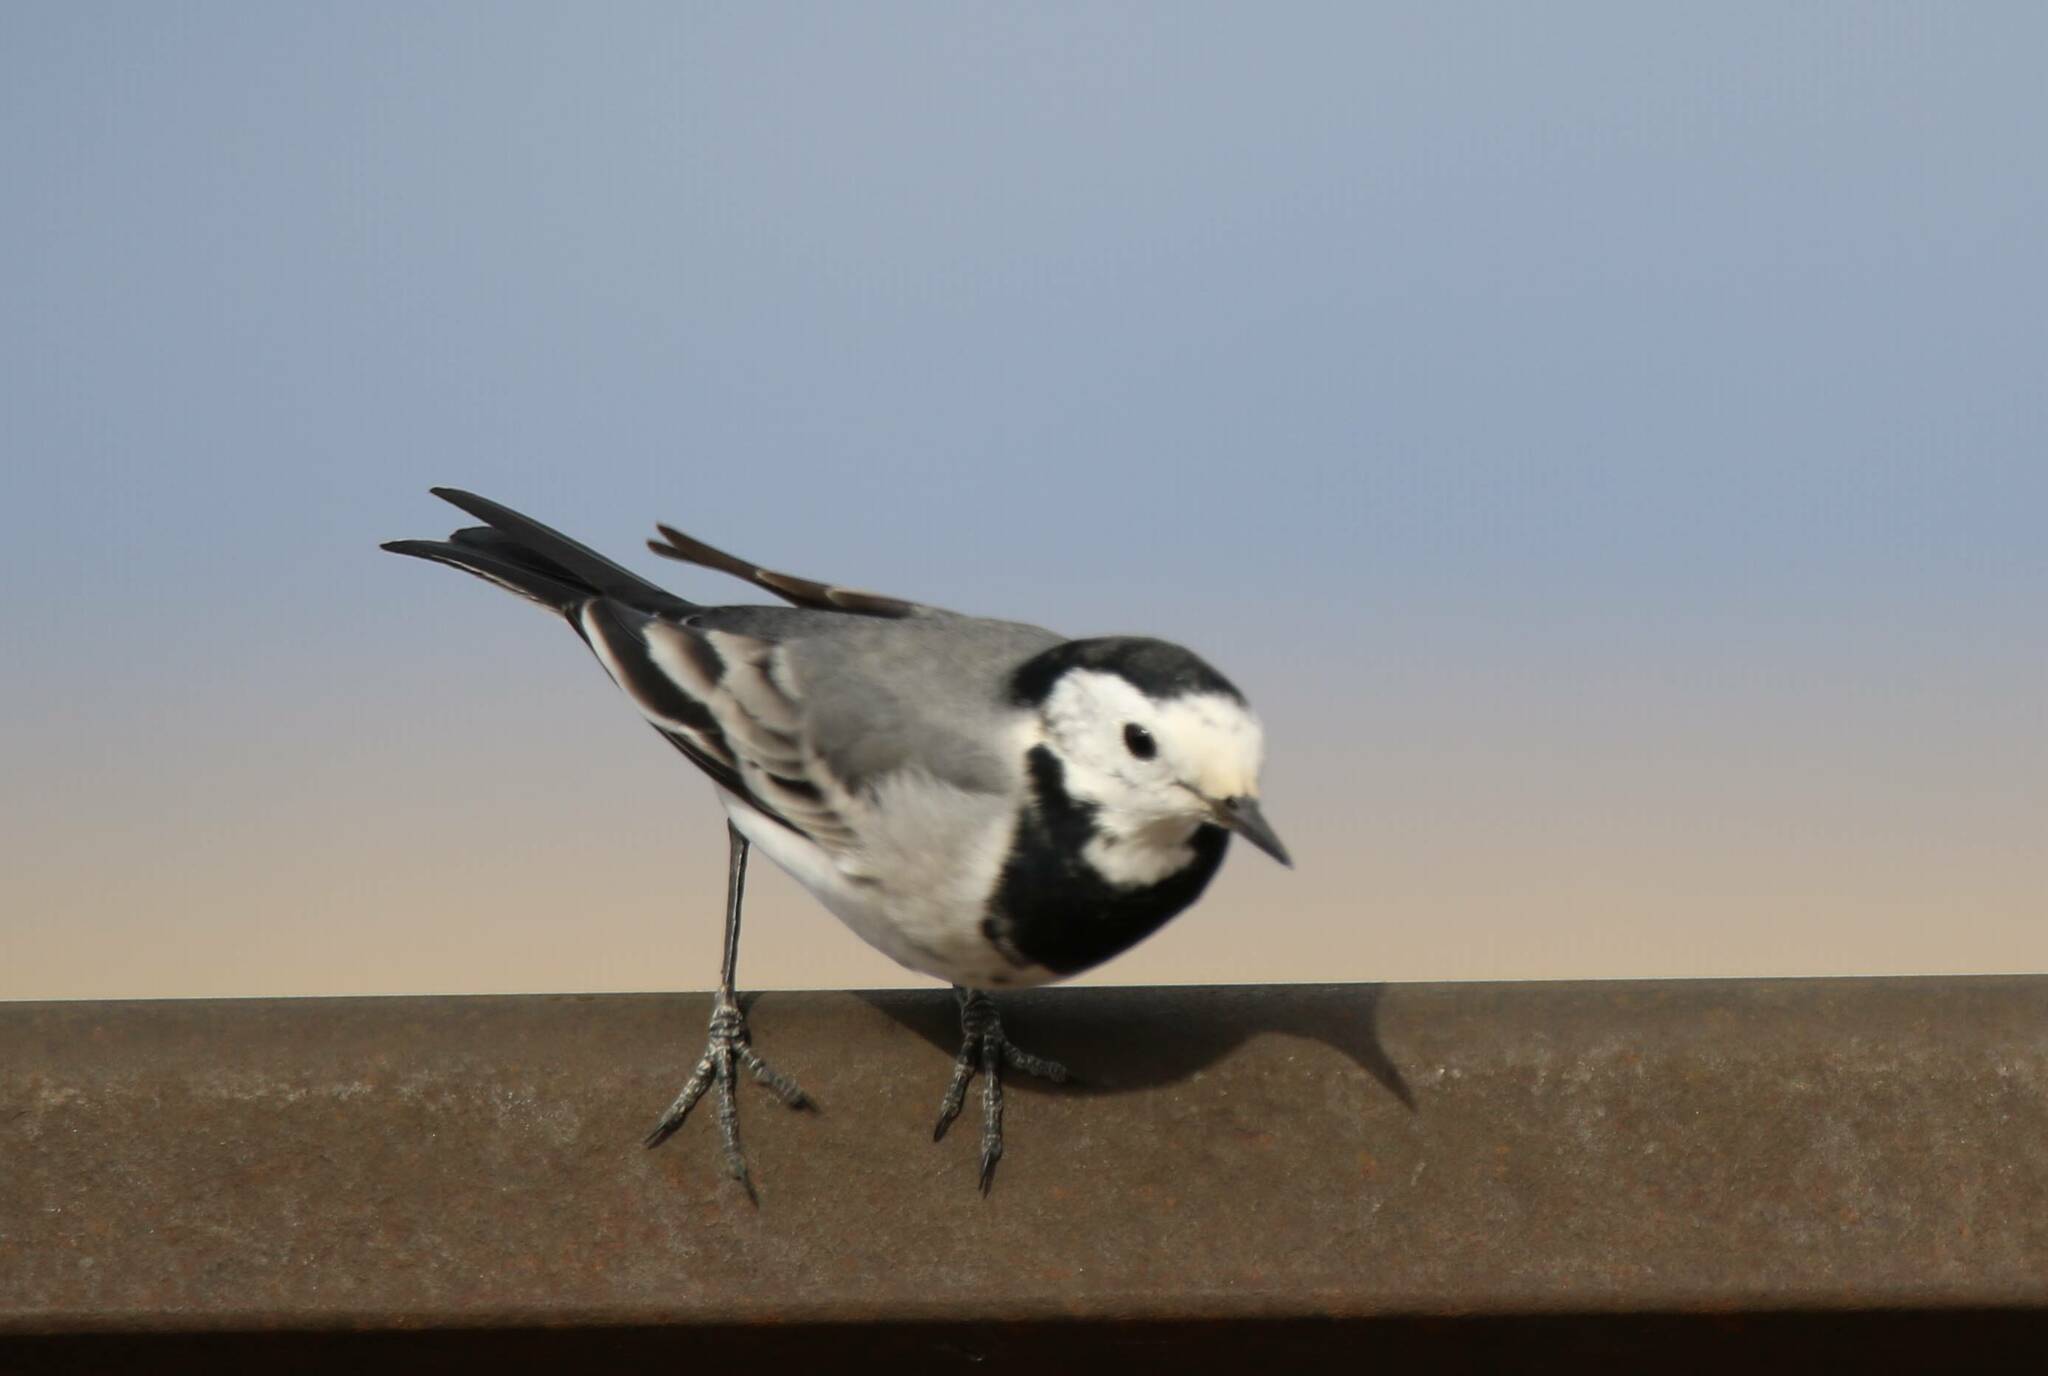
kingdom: Animalia
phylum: Chordata
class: Aves
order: Passeriformes
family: Motacillidae
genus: Motacilla
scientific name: Motacilla alba
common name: White wagtail
